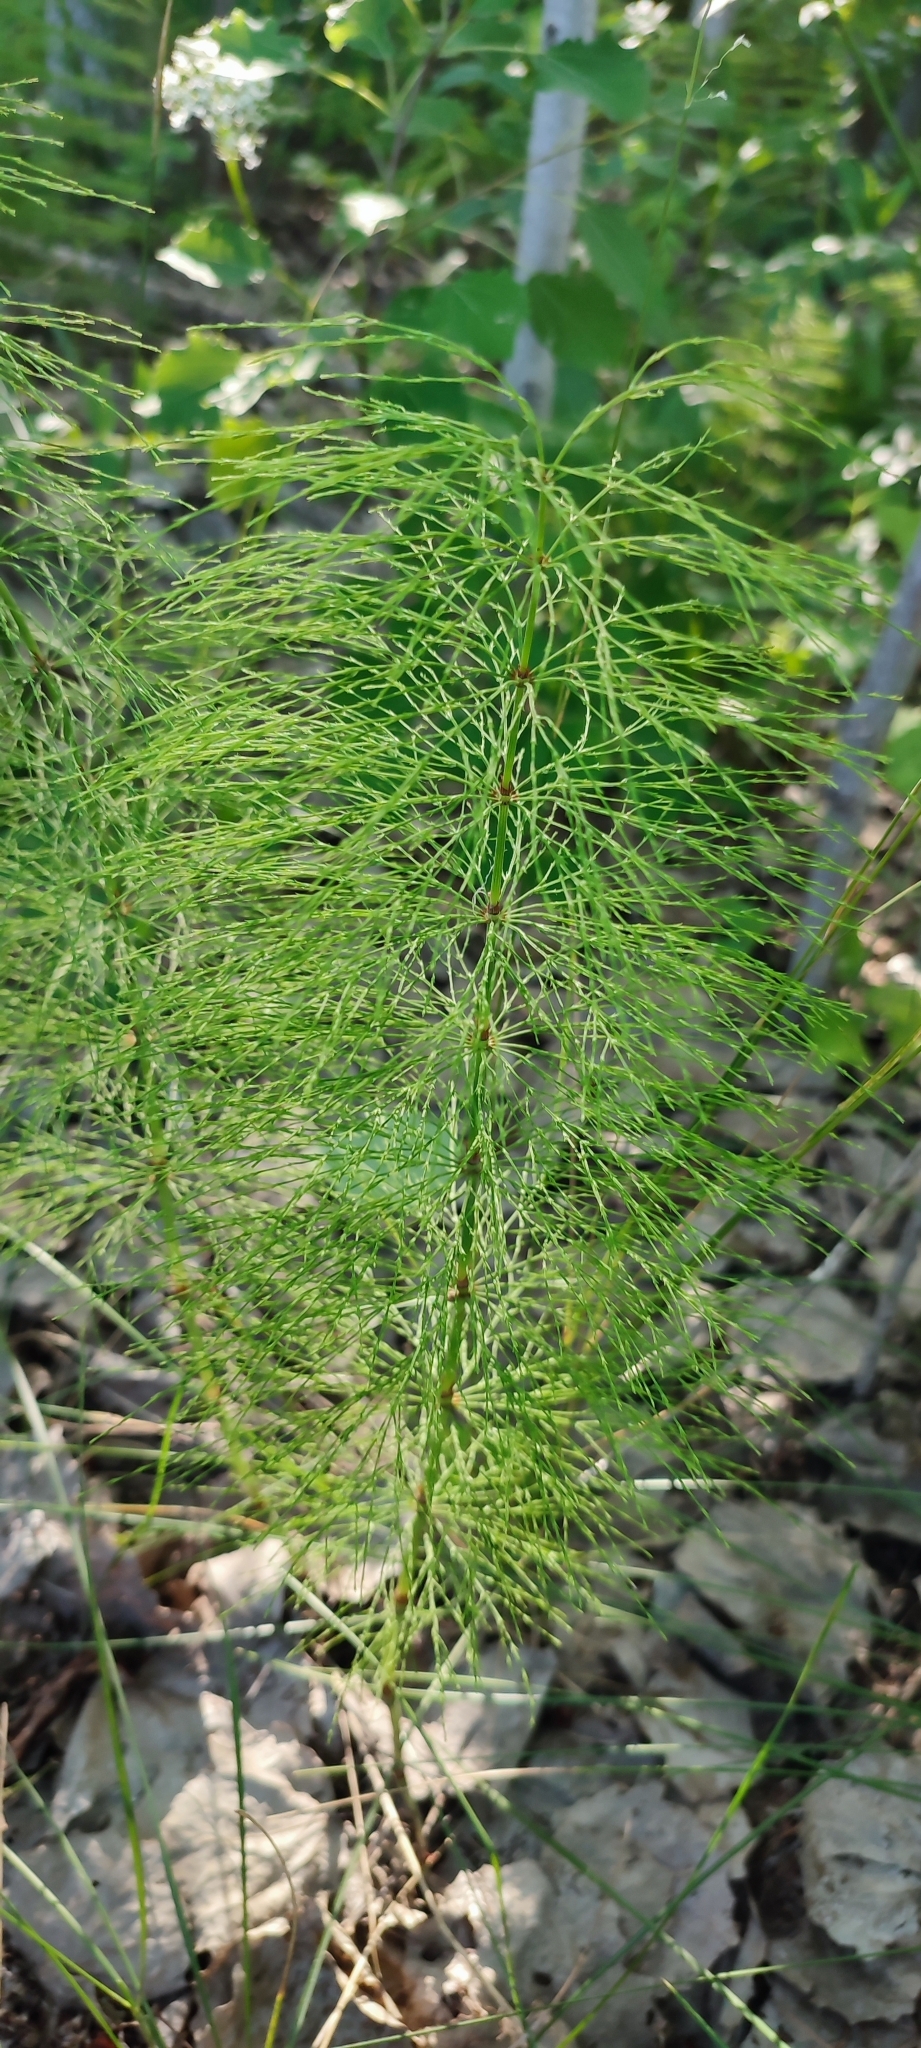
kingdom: Plantae
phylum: Tracheophyta
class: Polypodiopsida
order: Equisetales
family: Equisetaceae
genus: Equisetum
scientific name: Equisetum sylvaticum
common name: Wood horsetail
